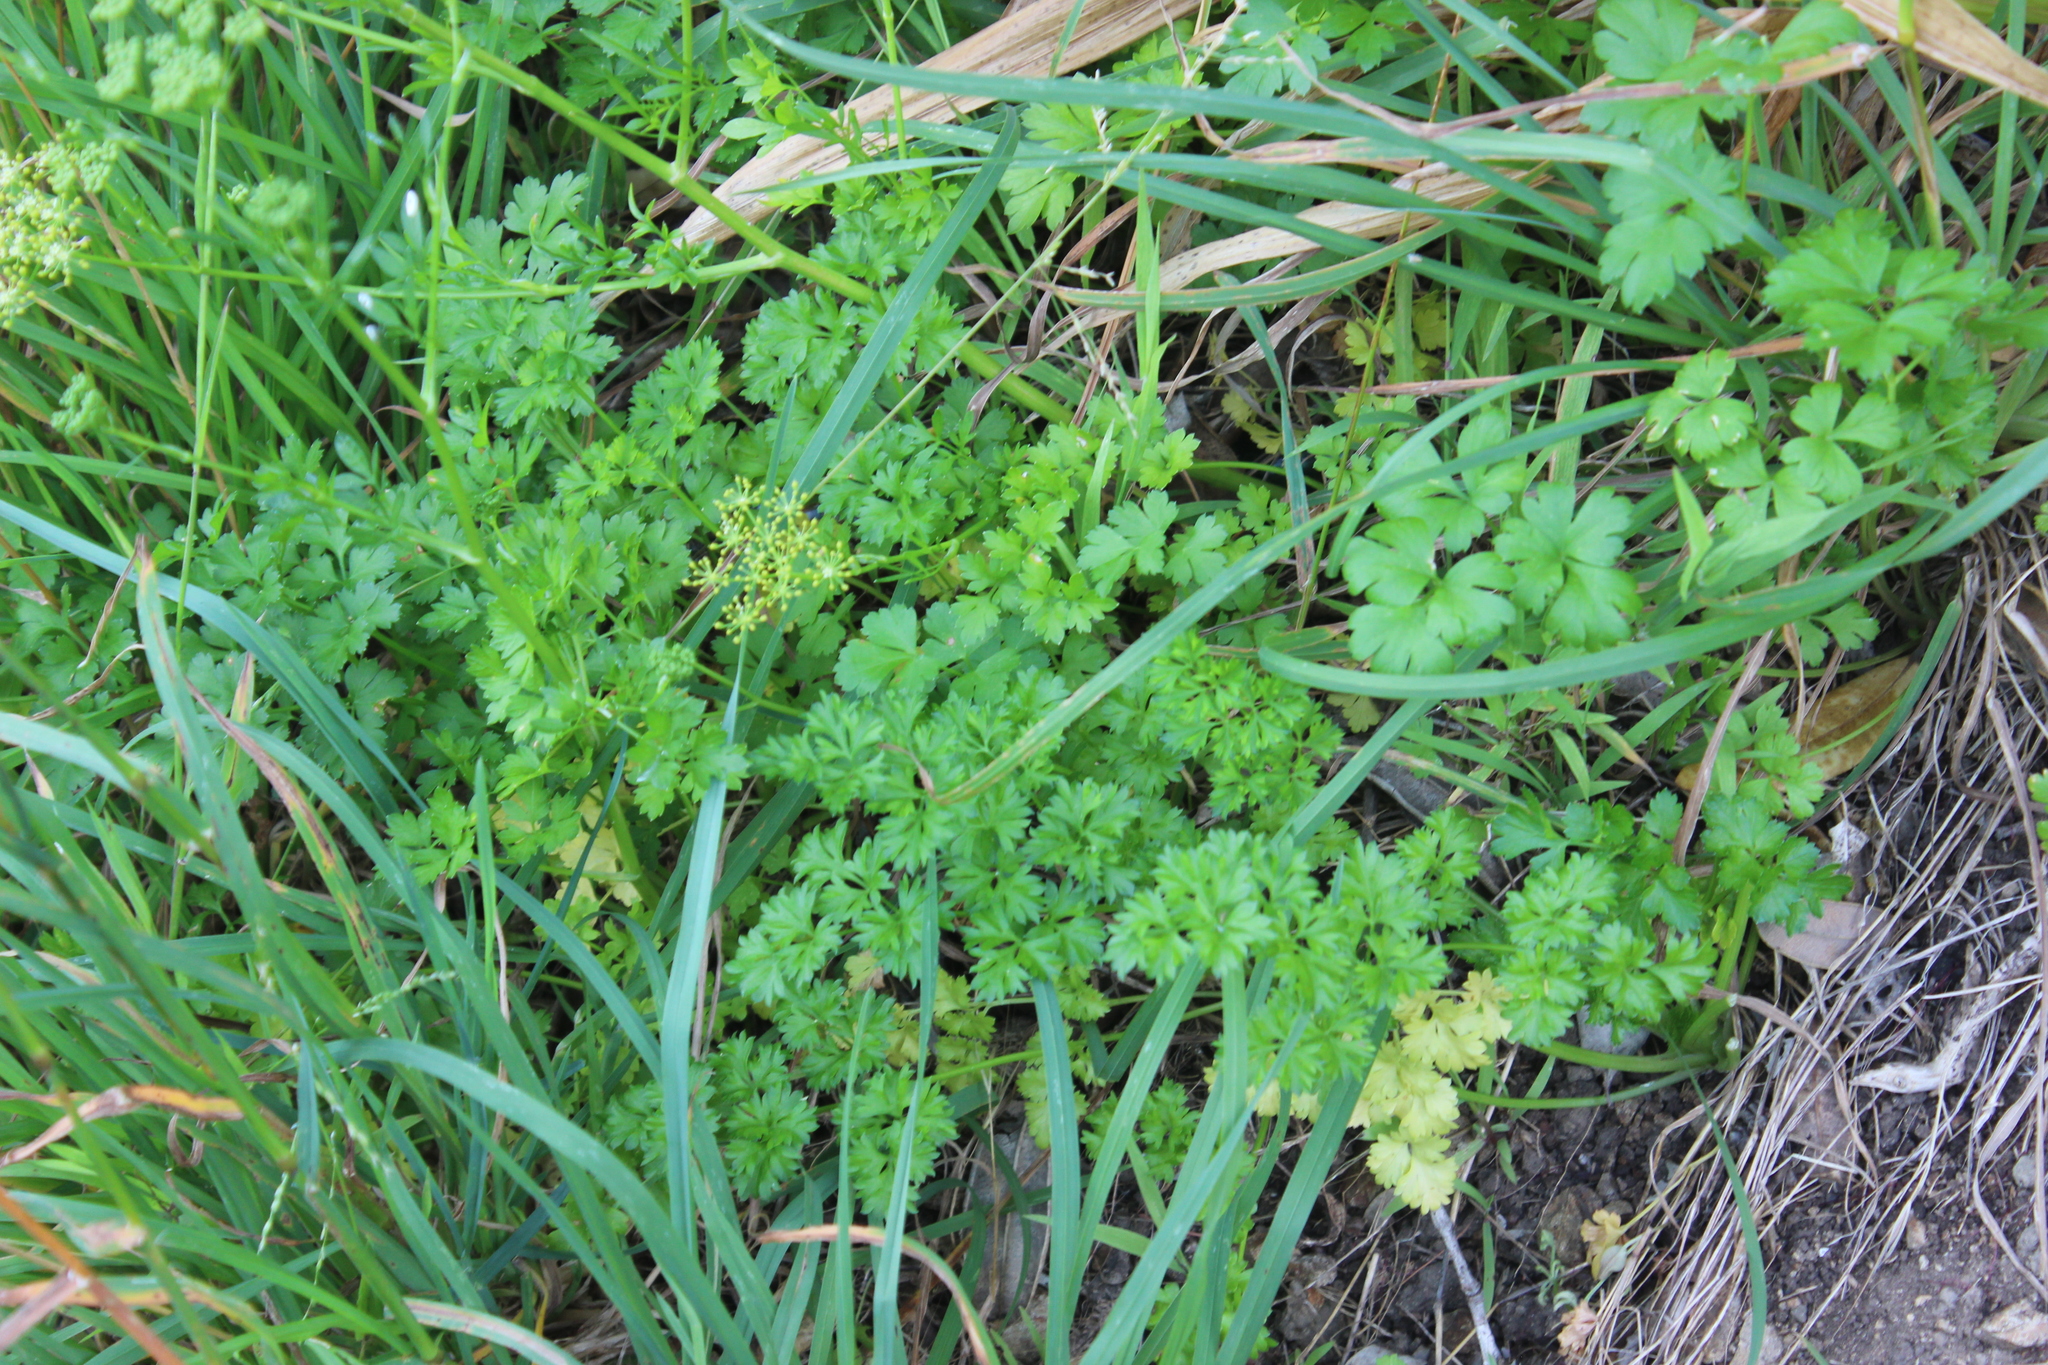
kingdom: Plantae
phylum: Tracheophyta
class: Magnoliopsida
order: Apiales
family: Apiaceae
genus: Petroselinum
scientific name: Petroselinum crispum
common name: Parsley
